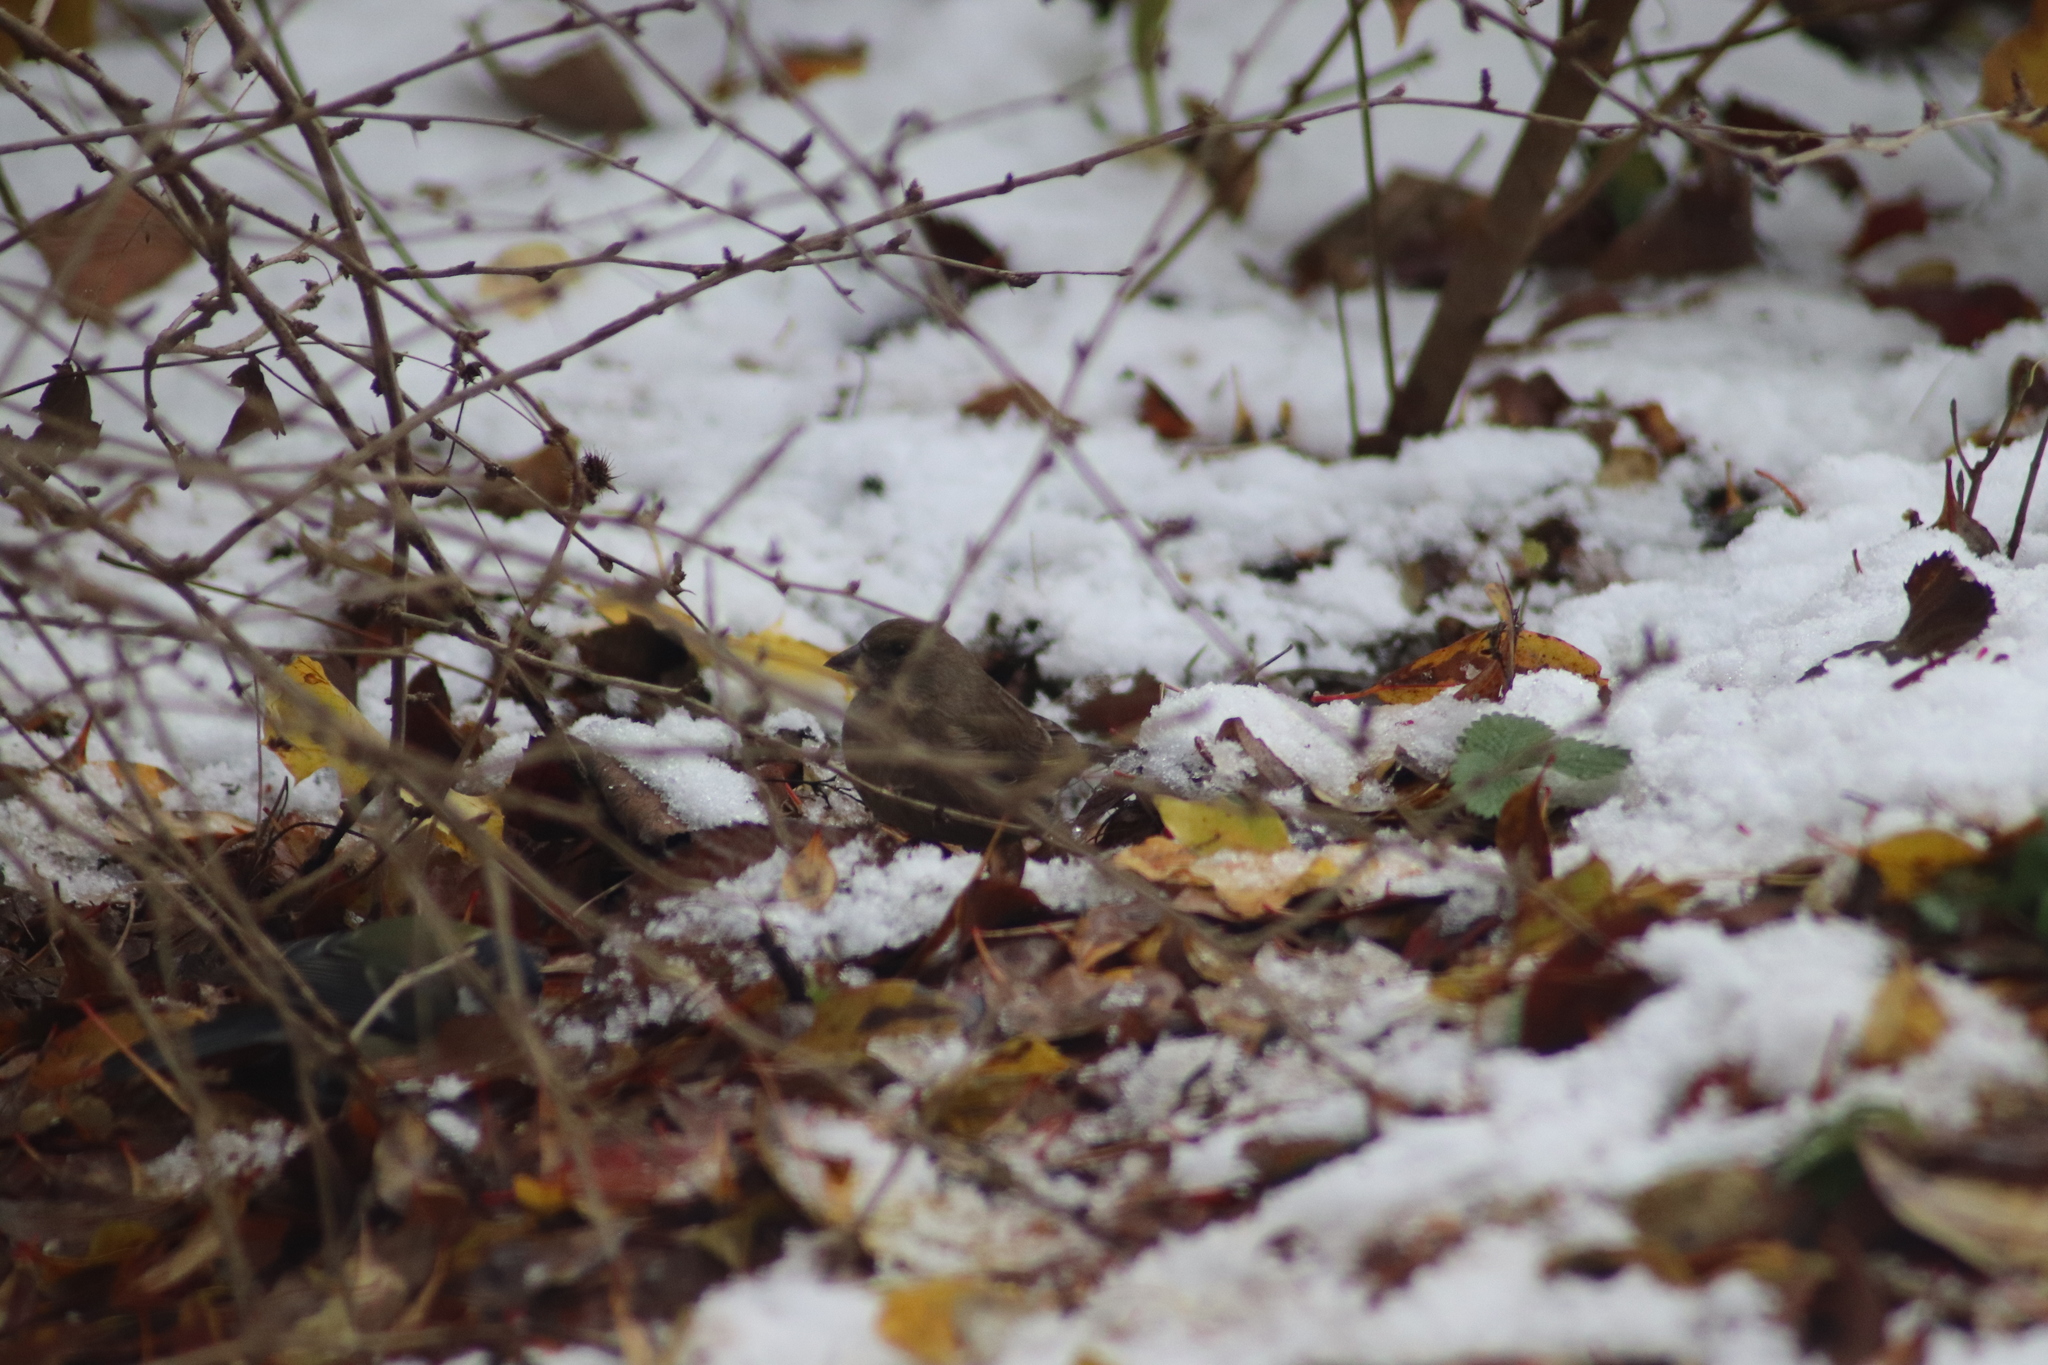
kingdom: Plantae
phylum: Tracheophyta
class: Liliopsida
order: Poales
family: Poaceae
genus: Chloris
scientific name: Chloris chloris
